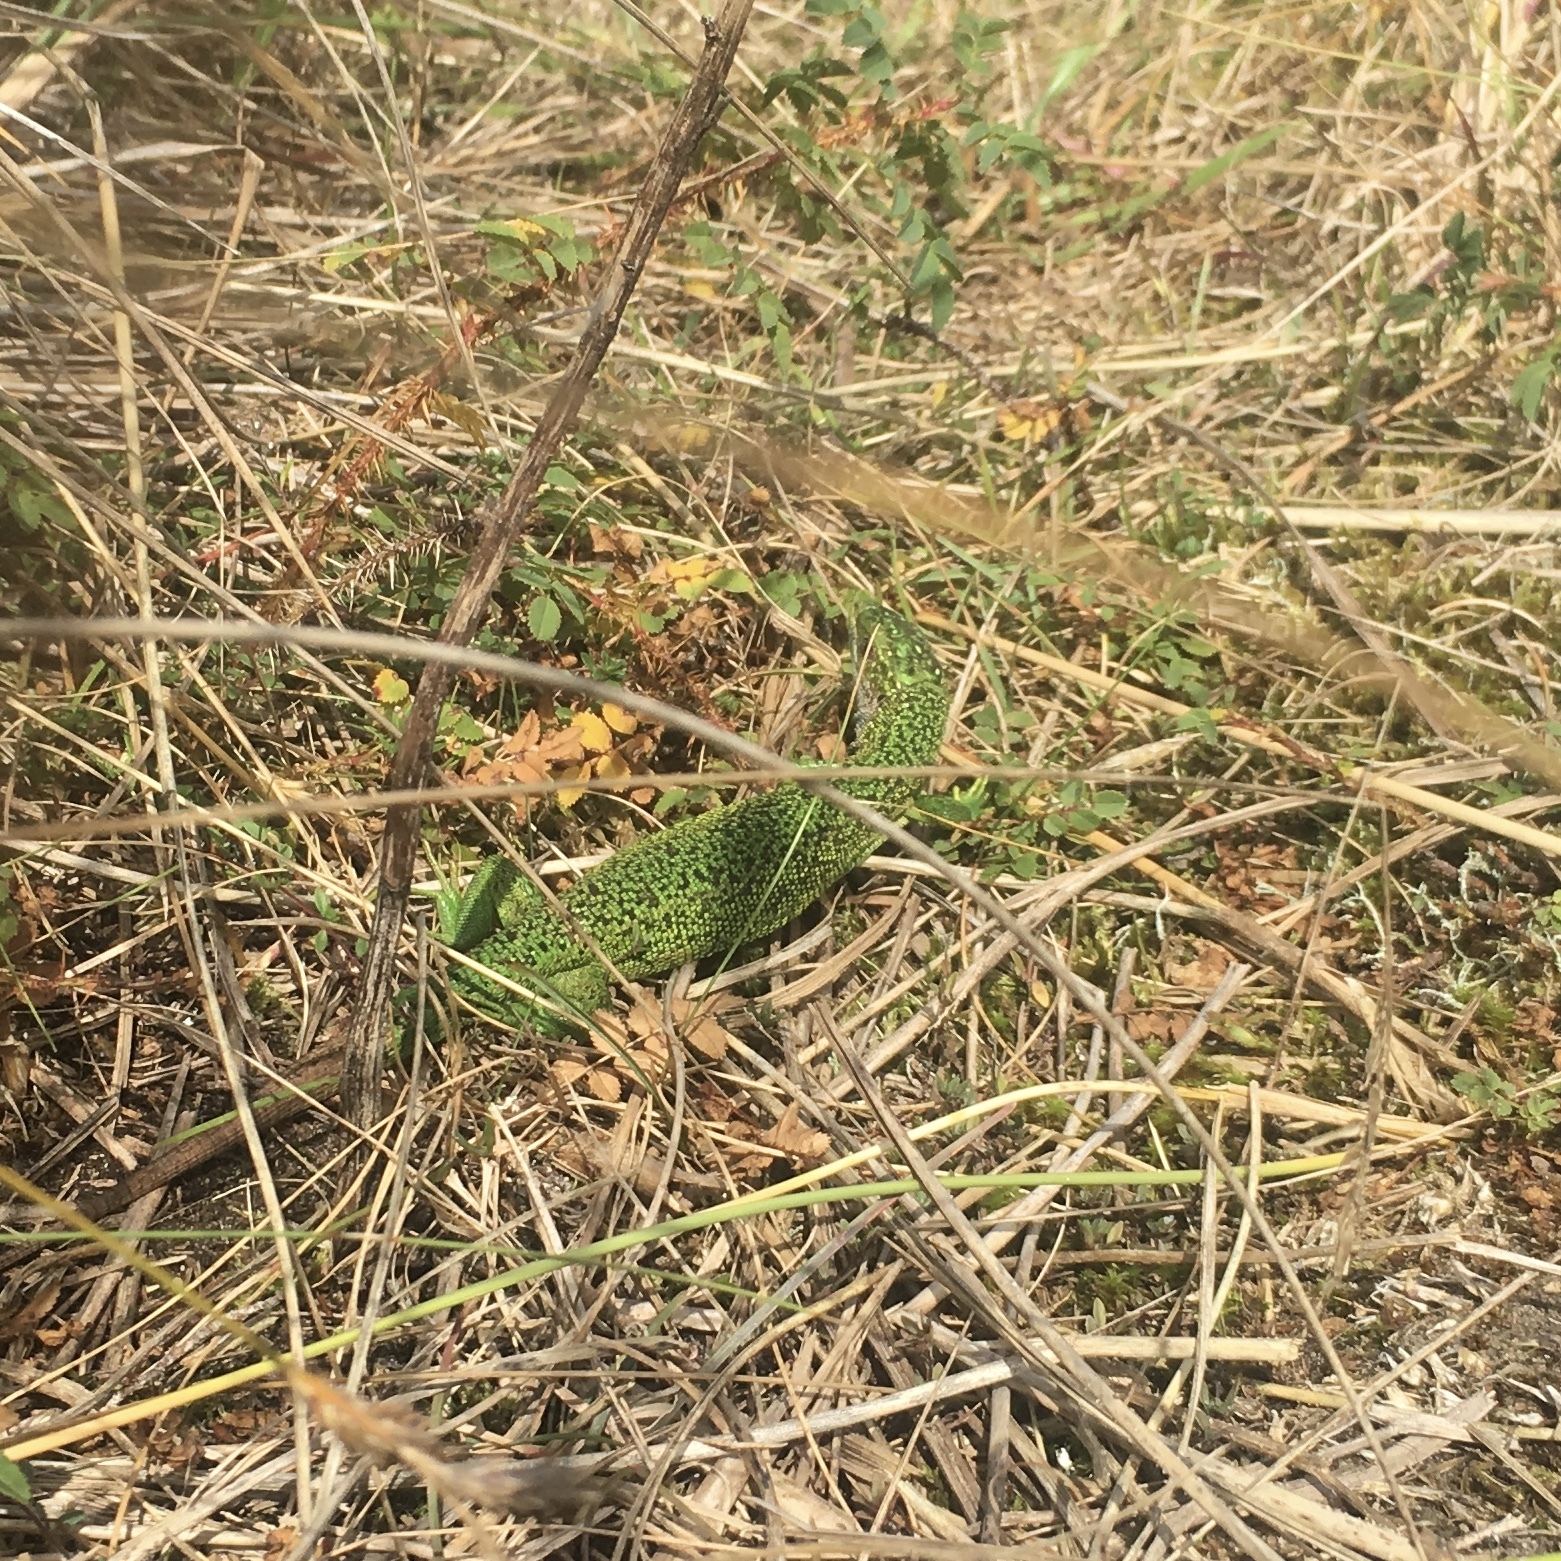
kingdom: Animalia
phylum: Chordata
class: Squamata
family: Lacertidae
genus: Lacerta
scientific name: Lacerta bilineata
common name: Western green lizard
